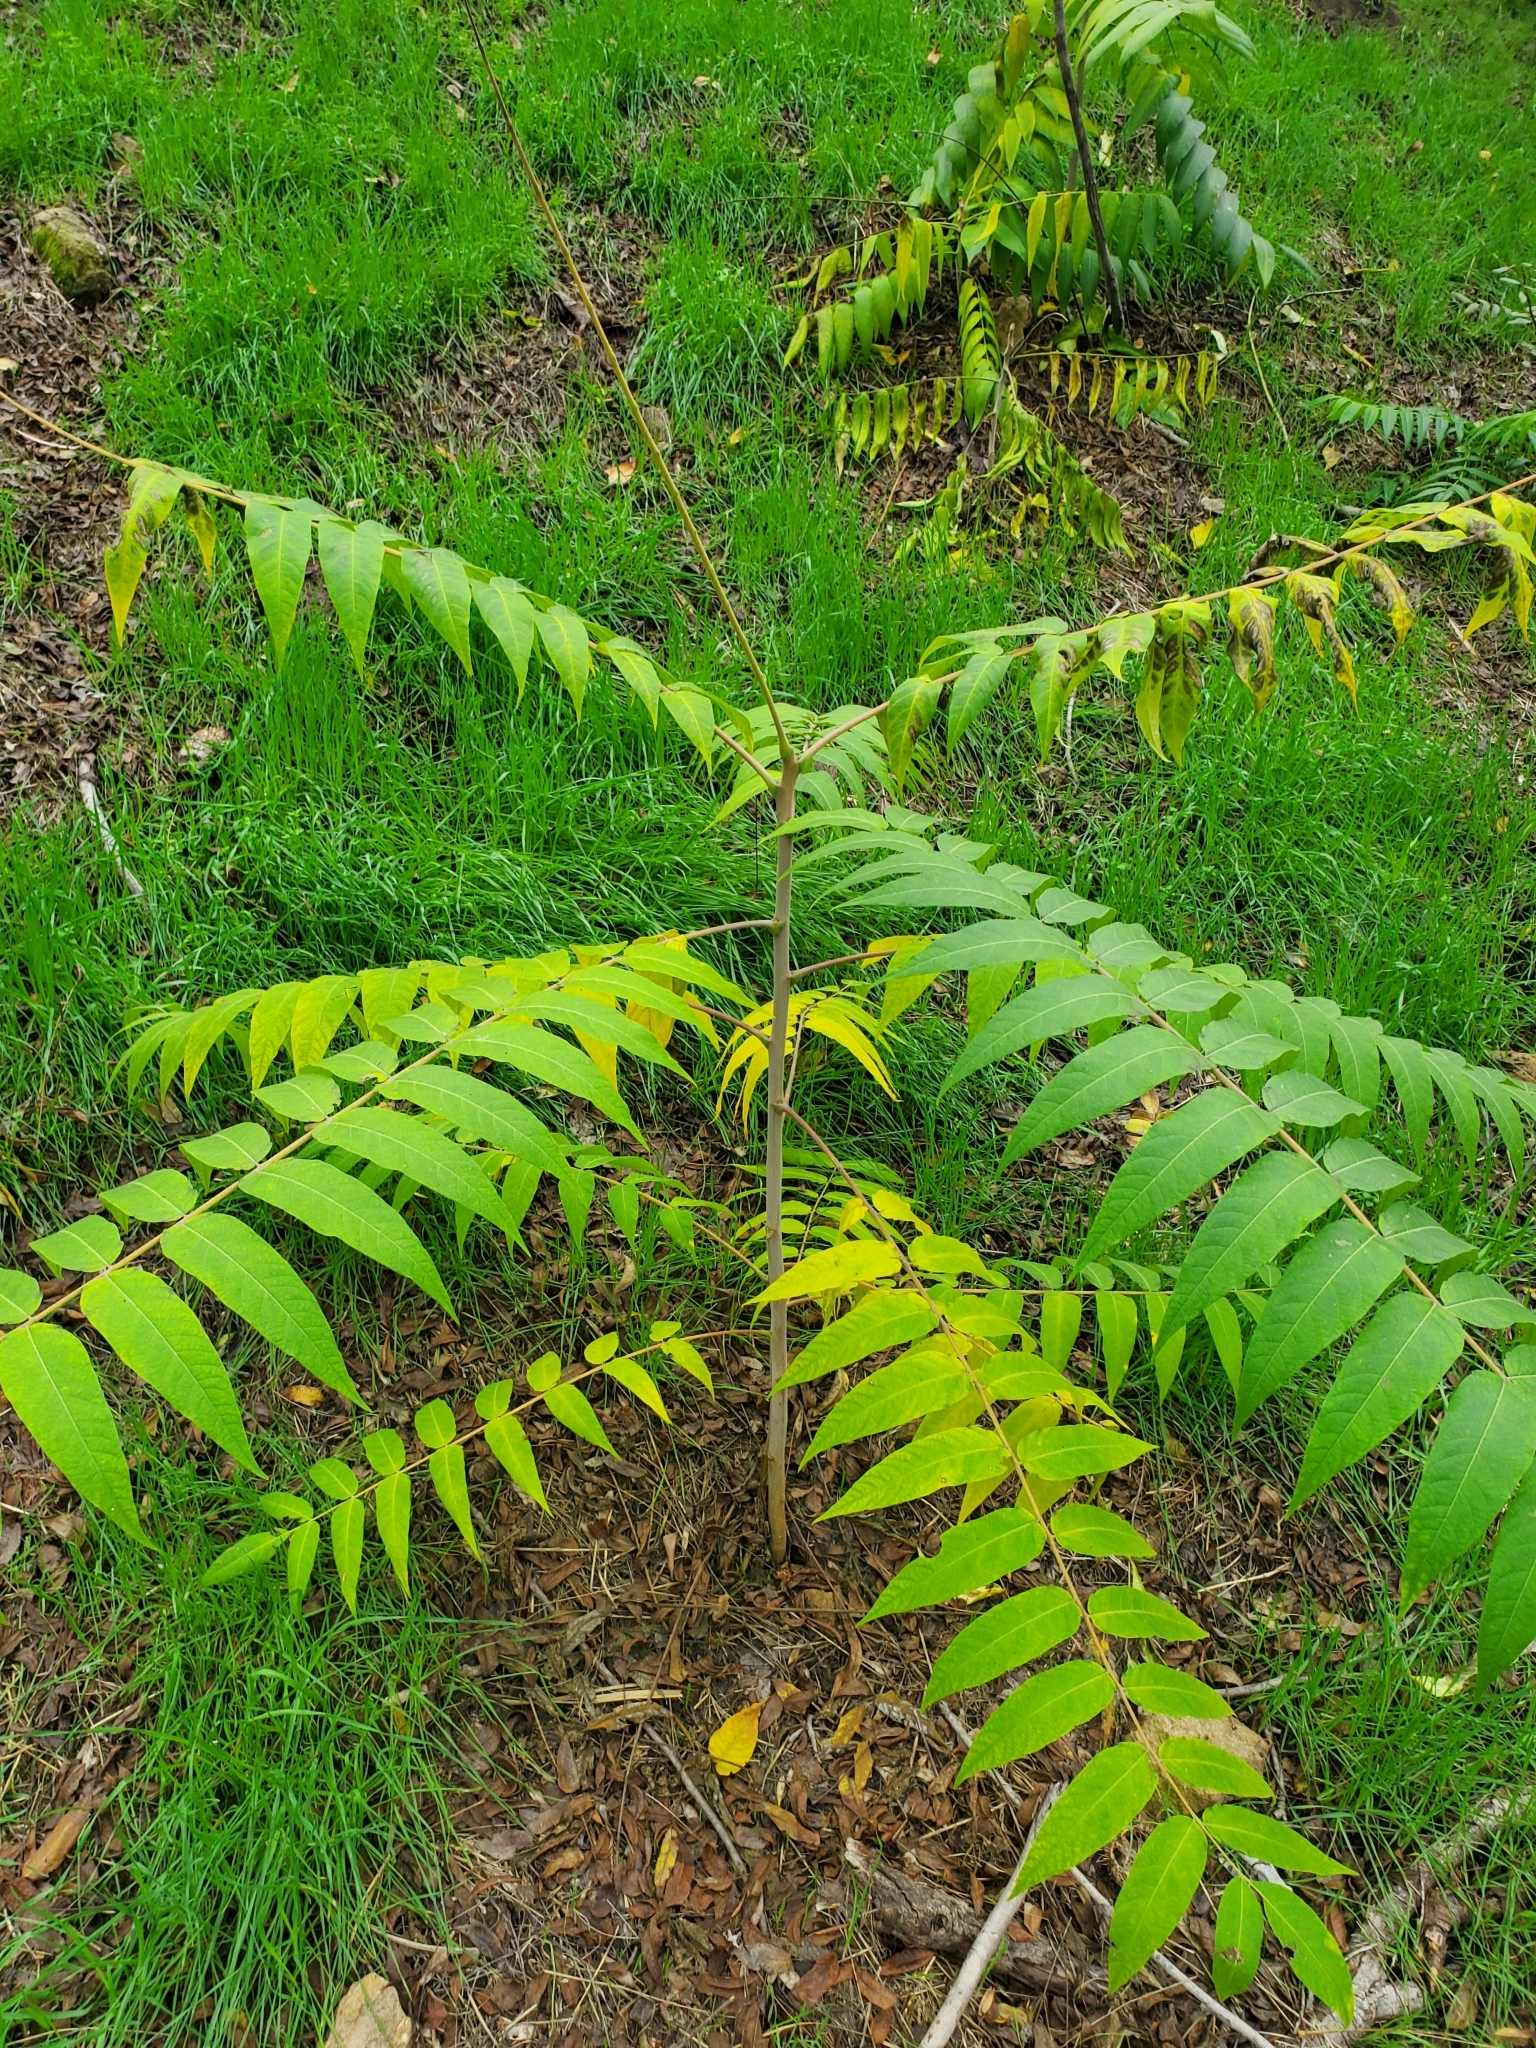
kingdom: Plantae
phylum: Tracheophyta
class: Magnoliopsida
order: Sapindales
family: Simaroubaceae
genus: Ailanthus
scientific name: Ailanthus altissima
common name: Tree-of-heaven
